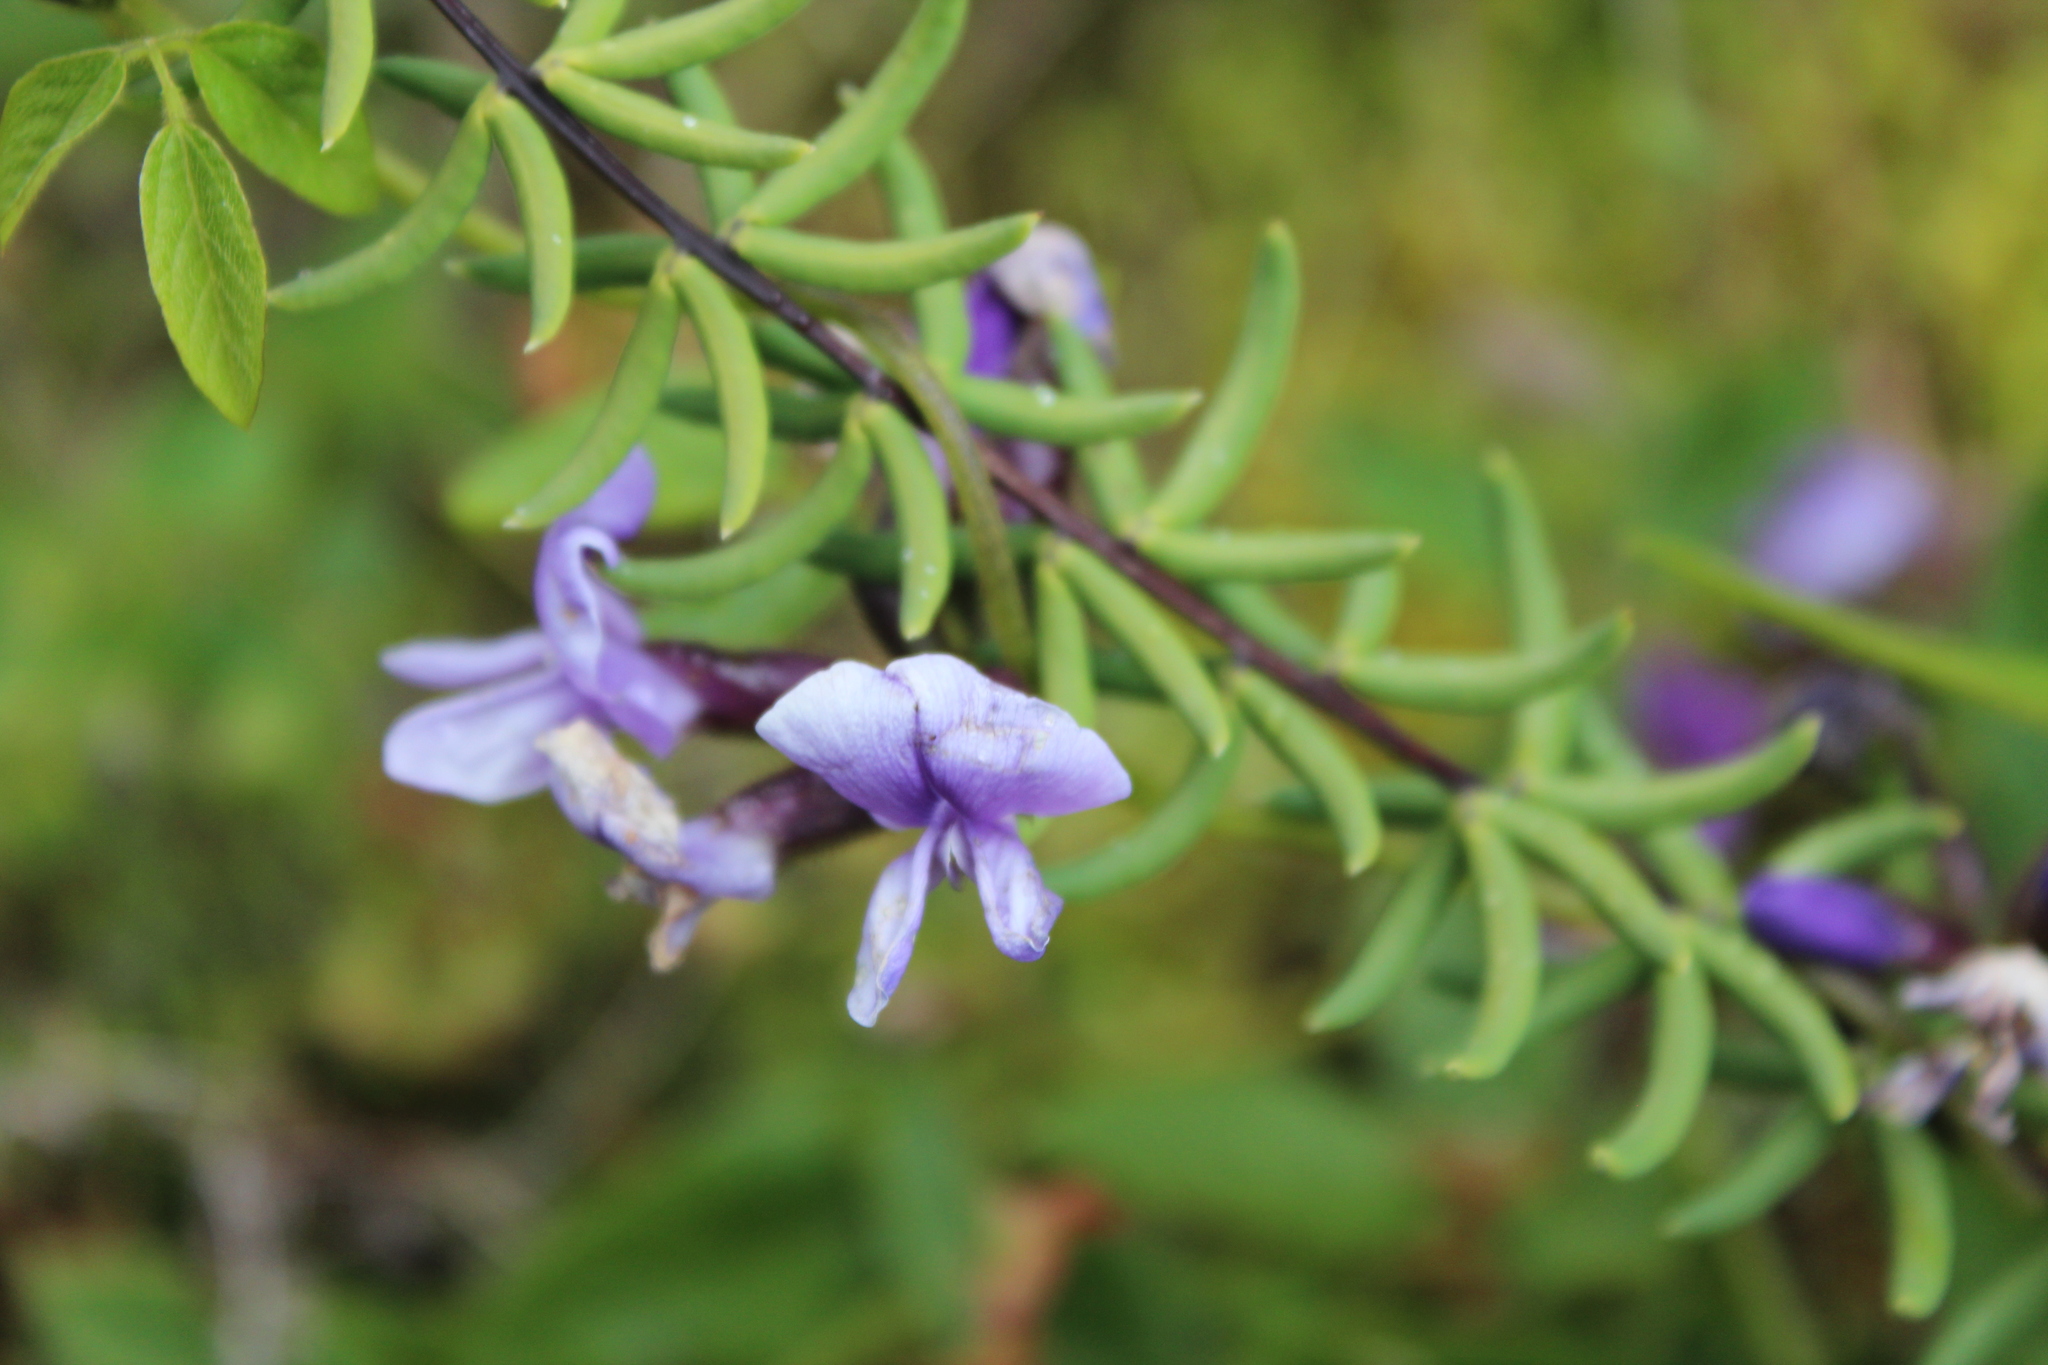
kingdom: Plantae
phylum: Tracheophyta
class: Polypodiopsida
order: Polypodiales
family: Pteridaceae
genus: Pellaea
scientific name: Pellaea ternifolia
